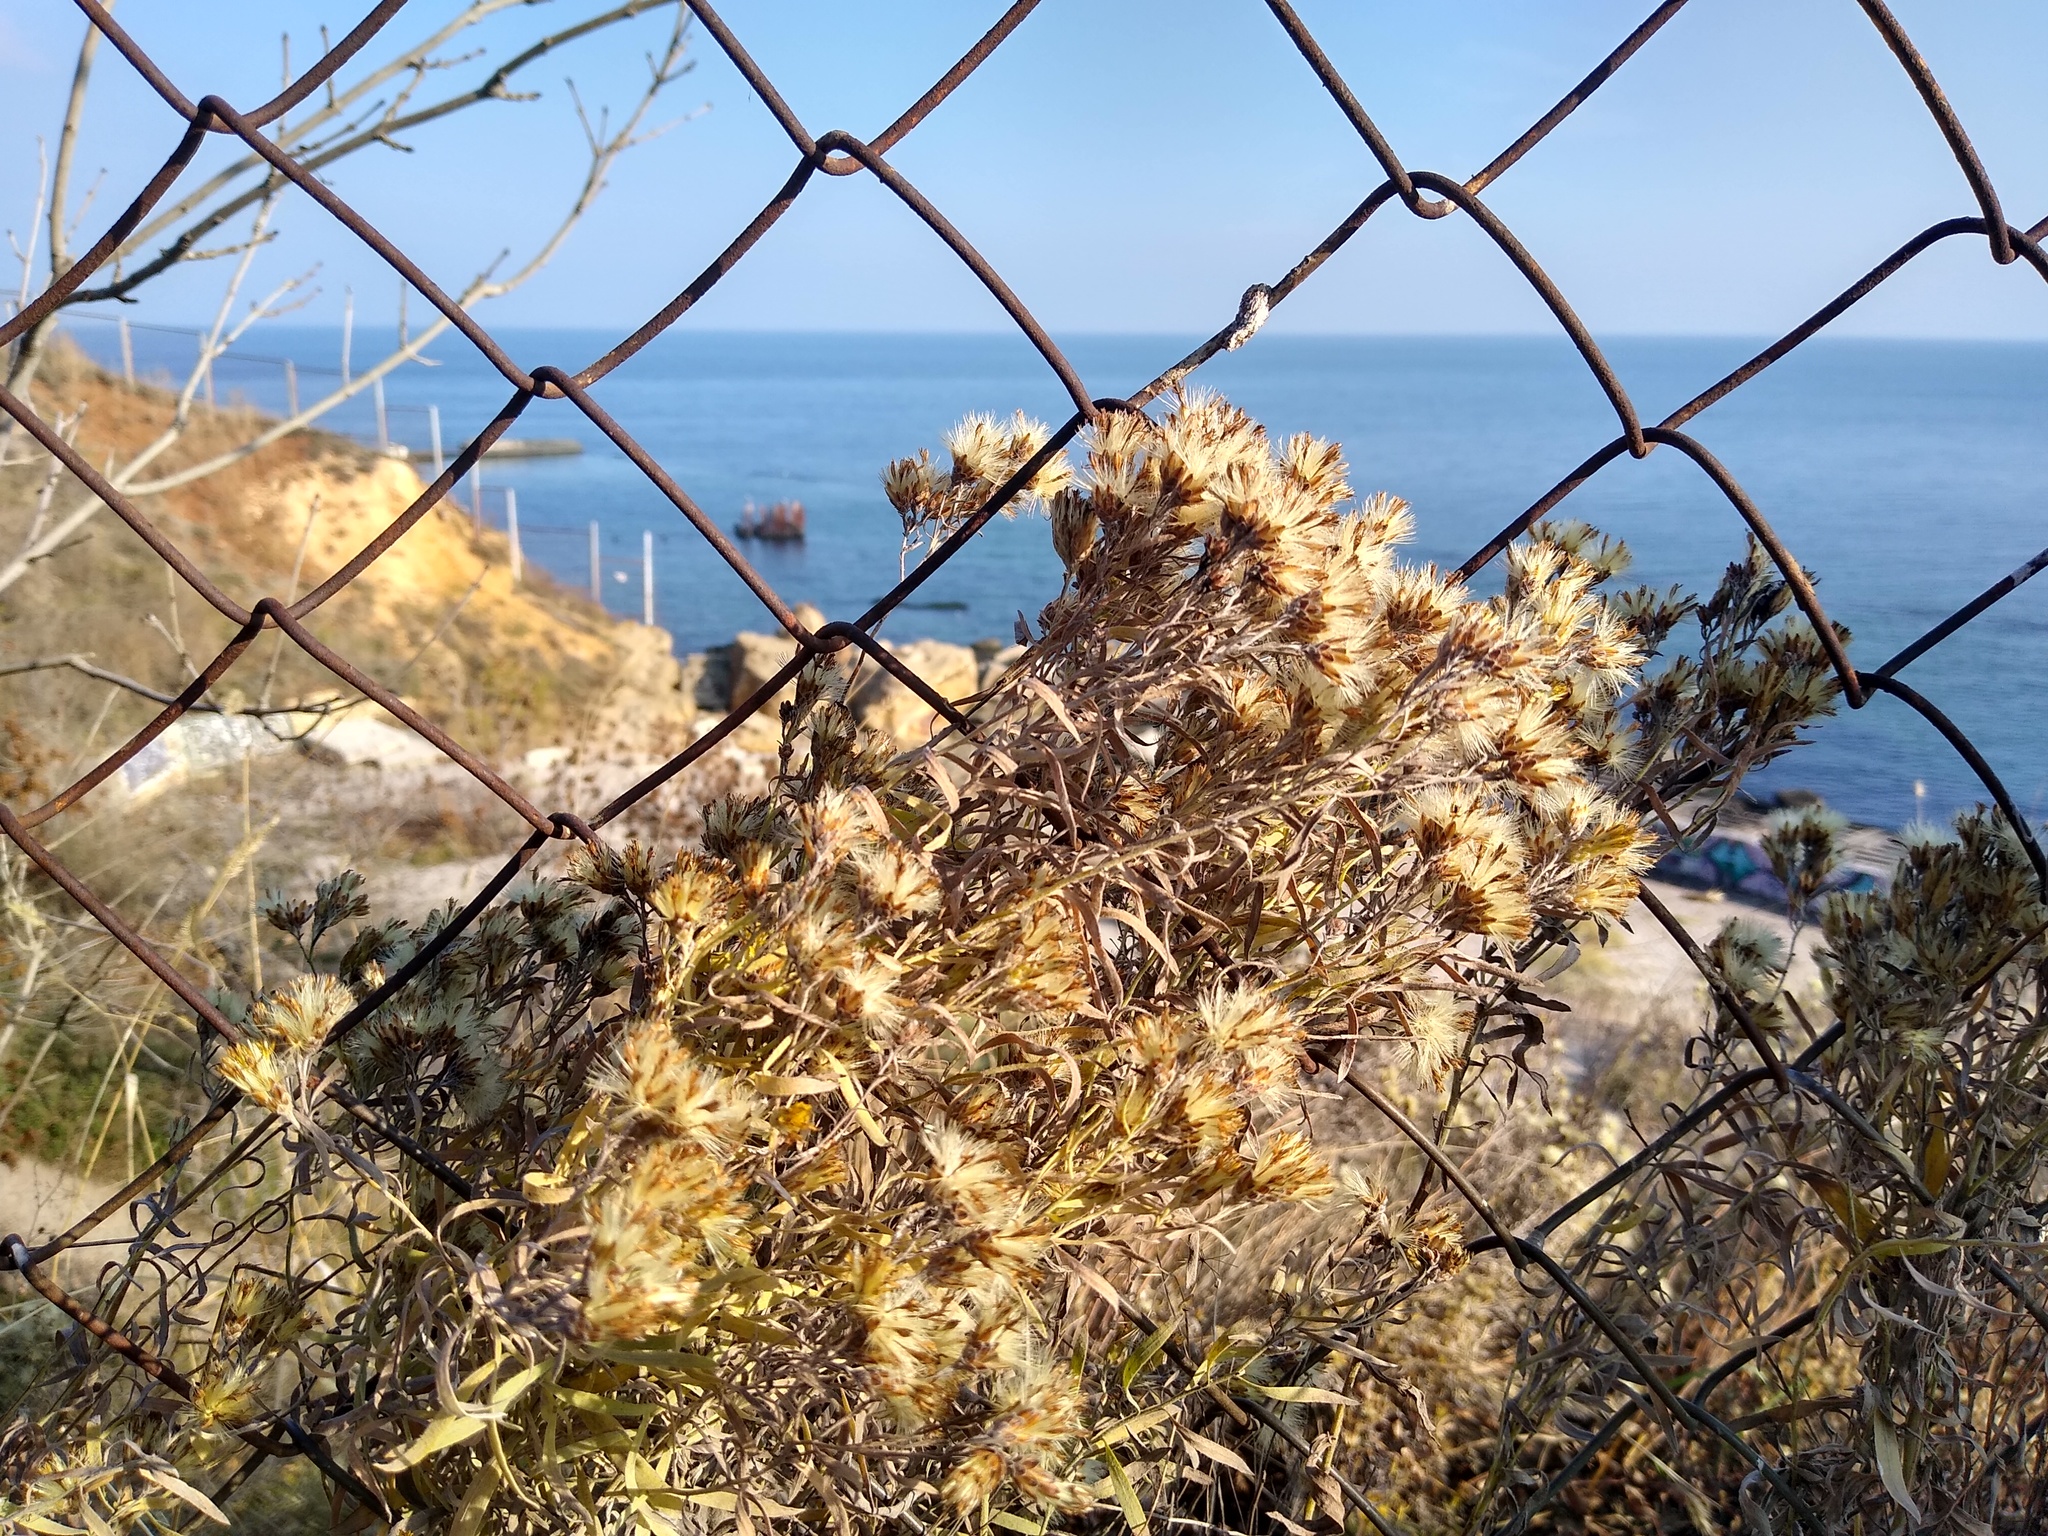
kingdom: Plantae
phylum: Tracheophyta
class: Magnoliopsida
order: Asterales
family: Asteraceae
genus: Galatella
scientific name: Galatella villosa
